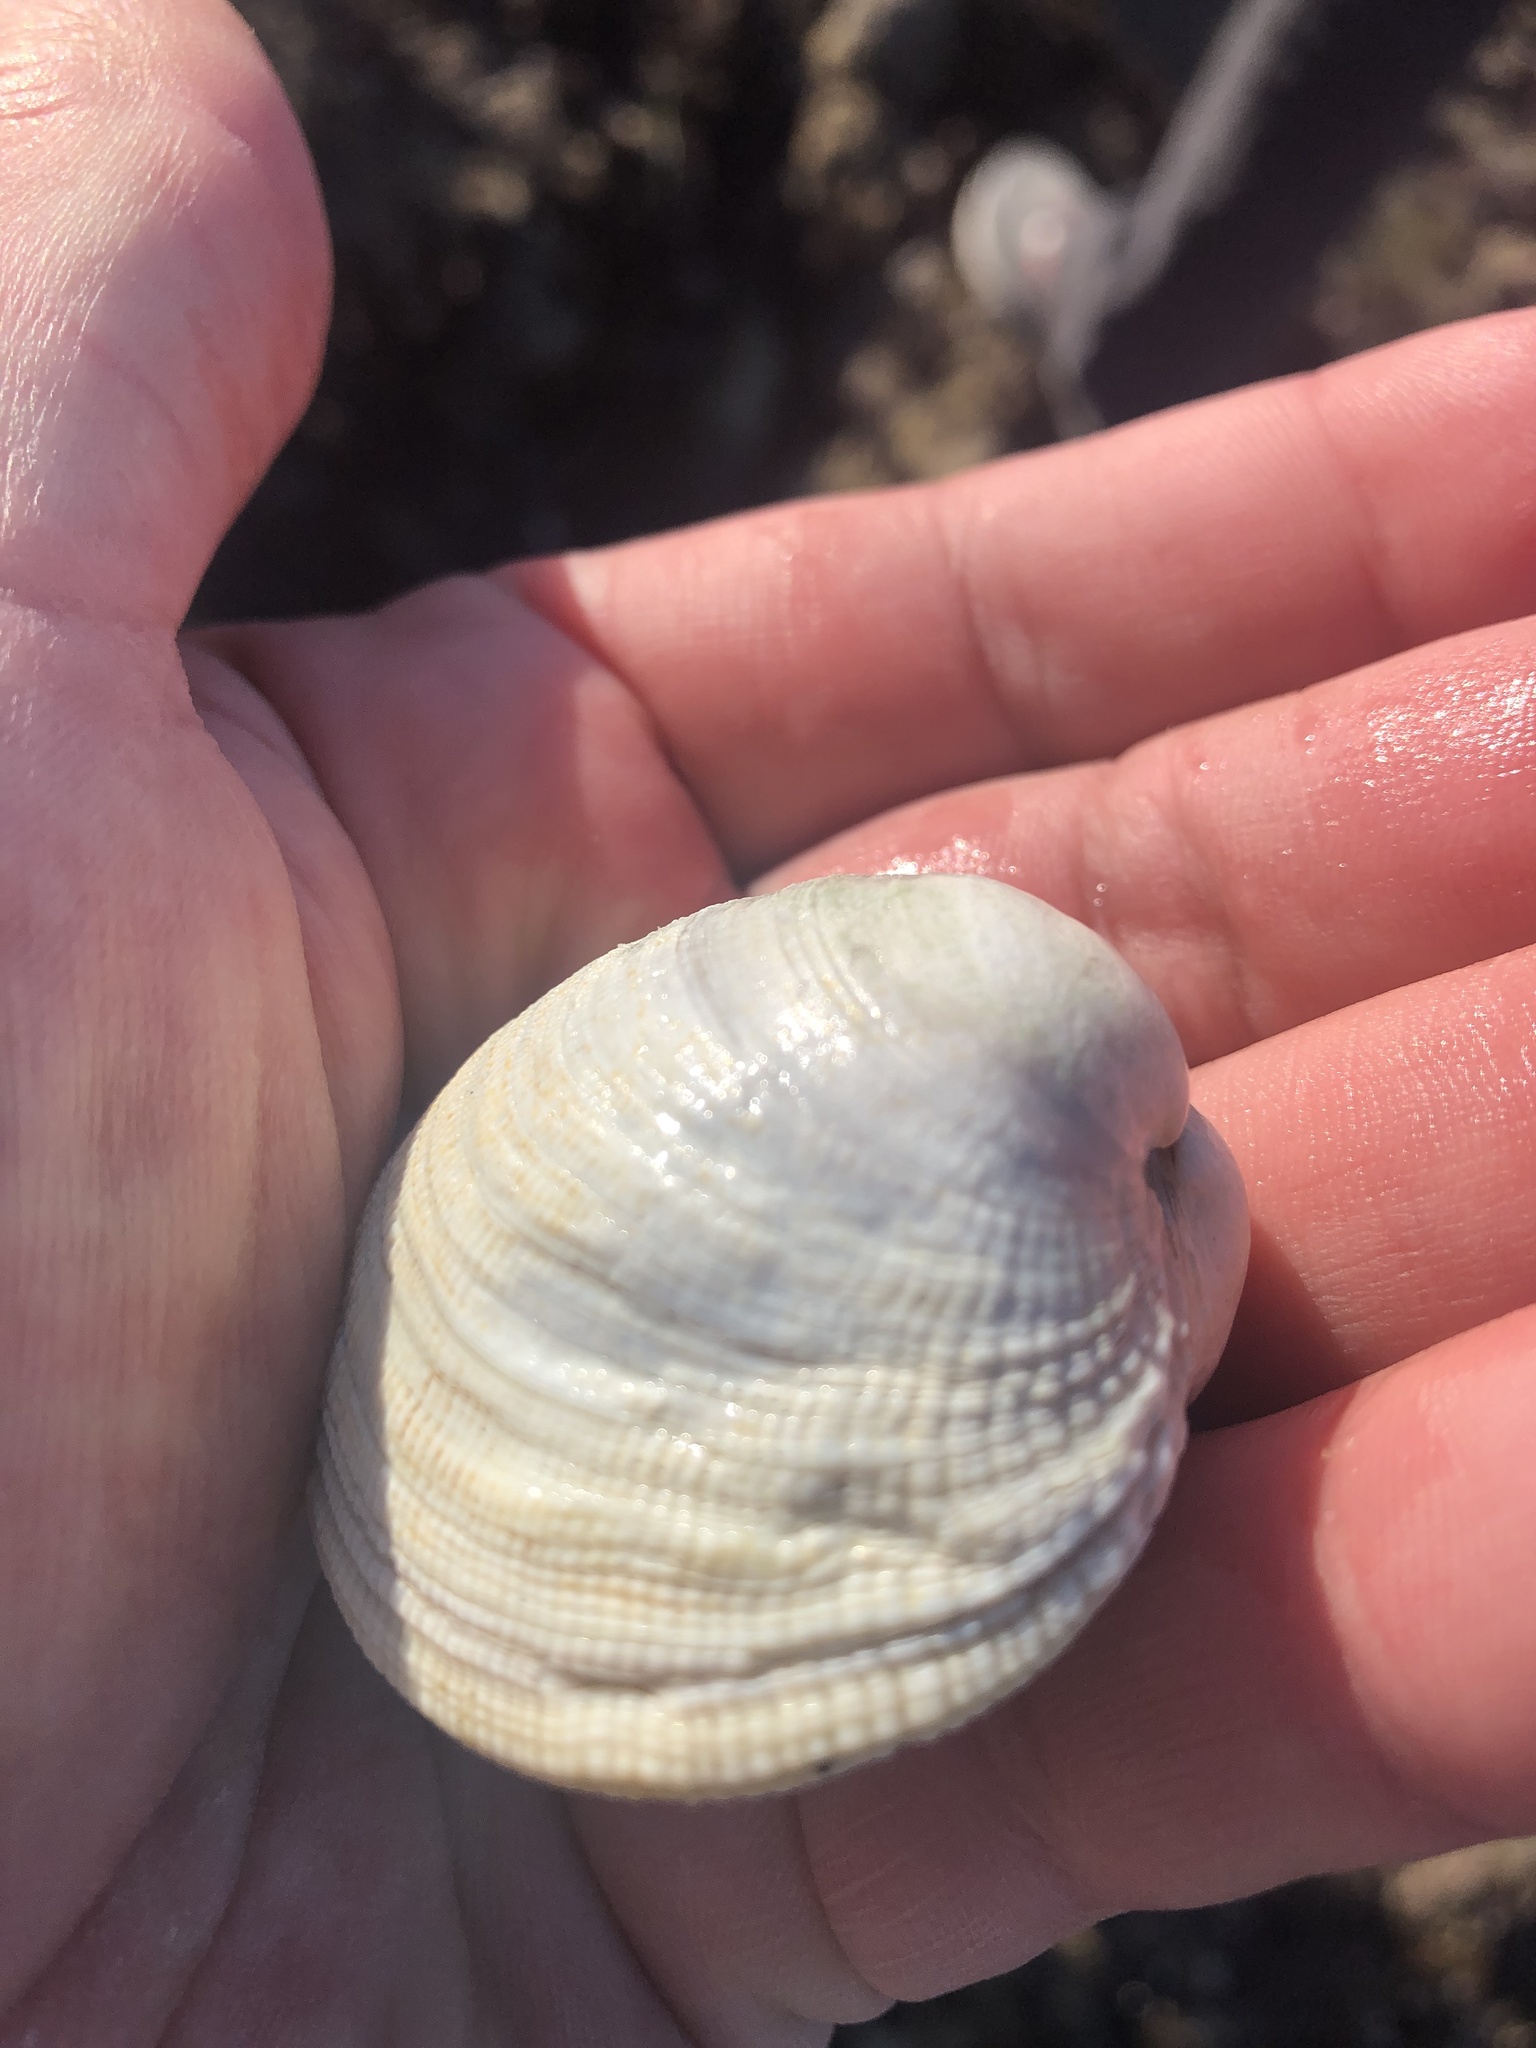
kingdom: Animalia
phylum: Mollusca
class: Bivalvia
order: Venerida
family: Veneridae
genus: Leukoma
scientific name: Leukoma staminea
